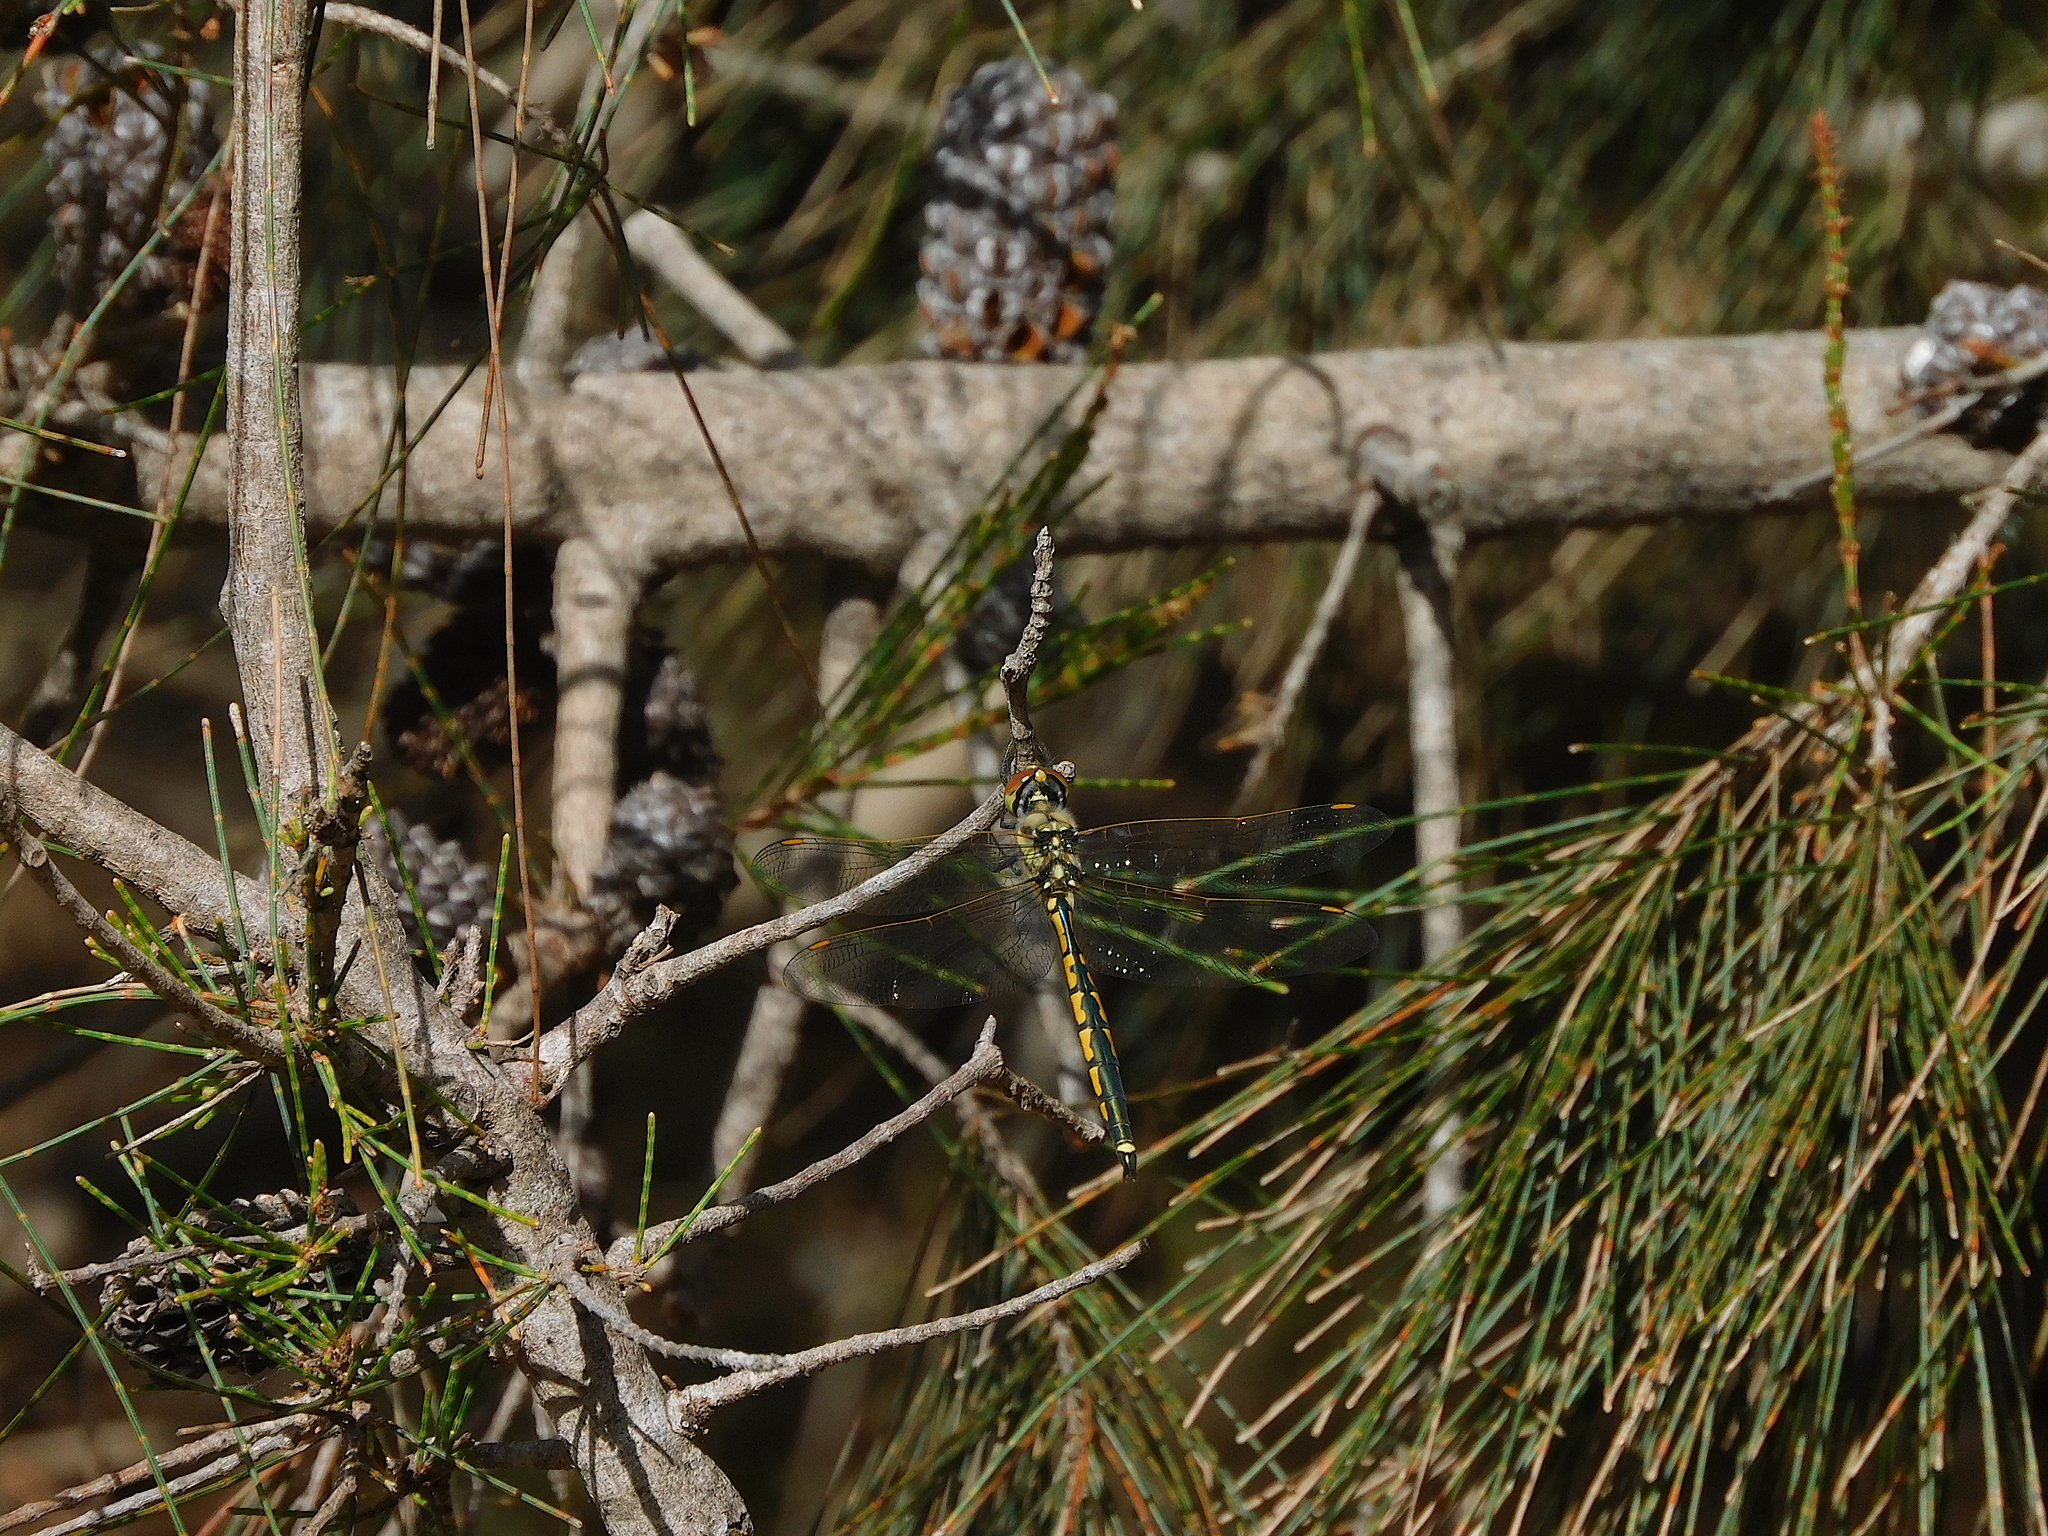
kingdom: Animalia
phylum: Arthropoda
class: Insecta
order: Odonata
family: Corduliidae
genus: Hemicordulia
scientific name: Hemicordulia tau
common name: Tau emerald
